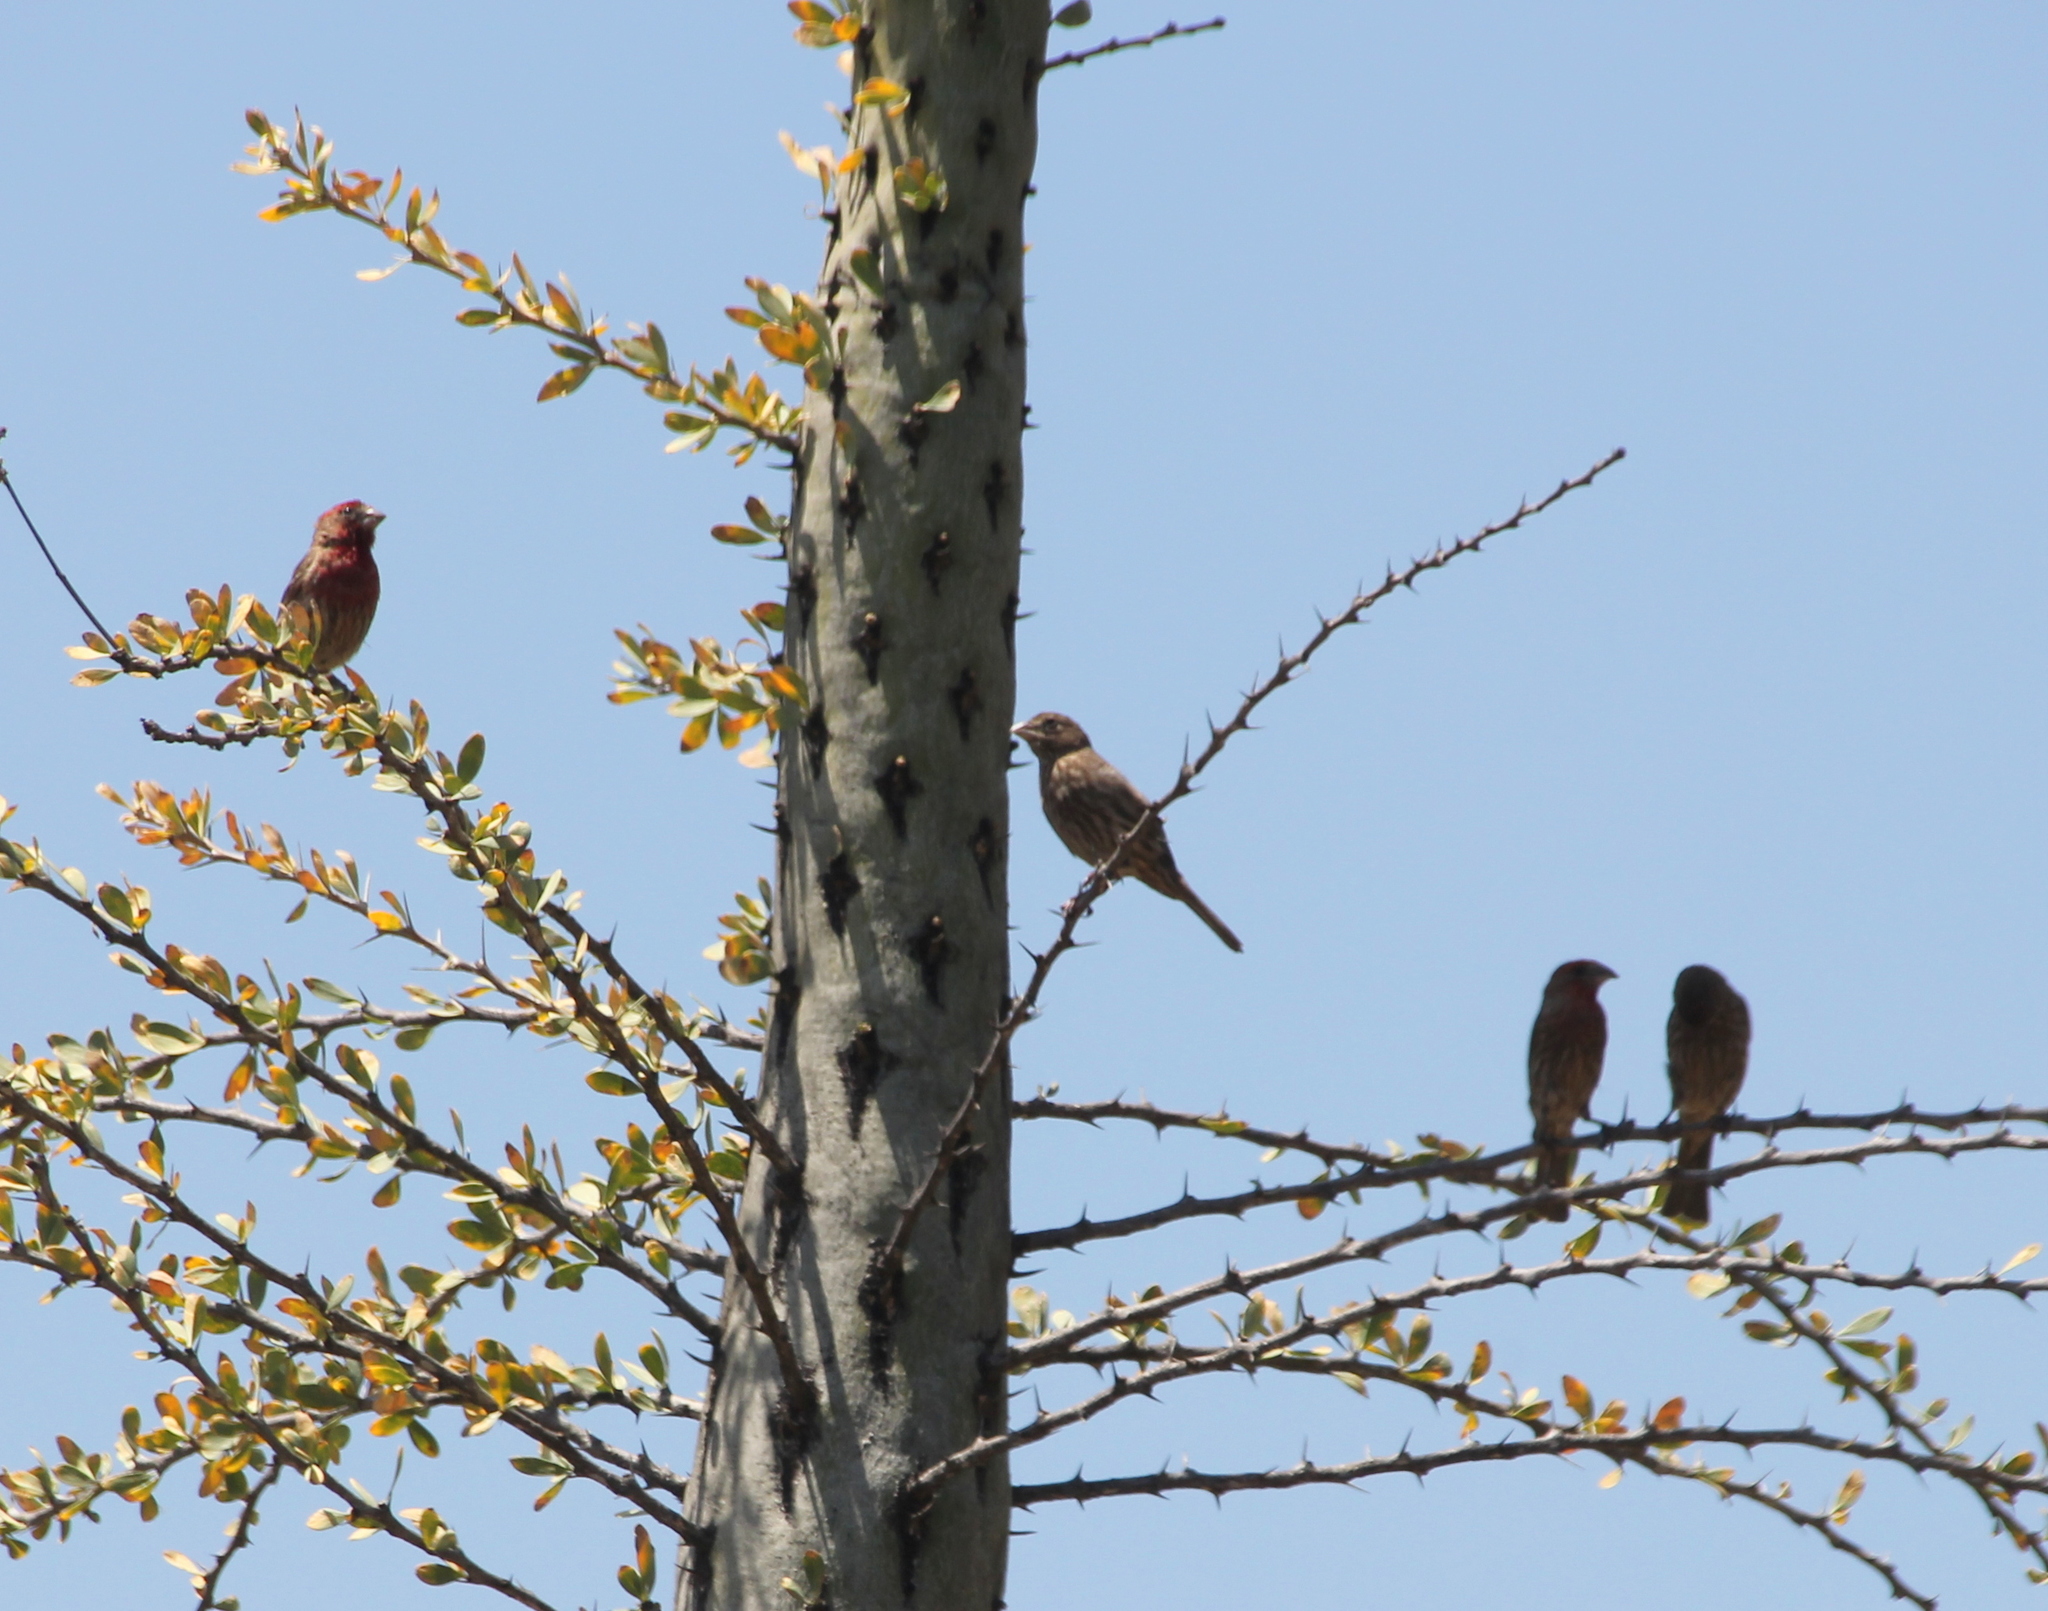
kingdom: Animalia
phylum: Chordata
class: Aves
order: Passeriformes
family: Fringillidae
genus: Haemorhous
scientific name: Haemorhous mexicanus
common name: House finch
